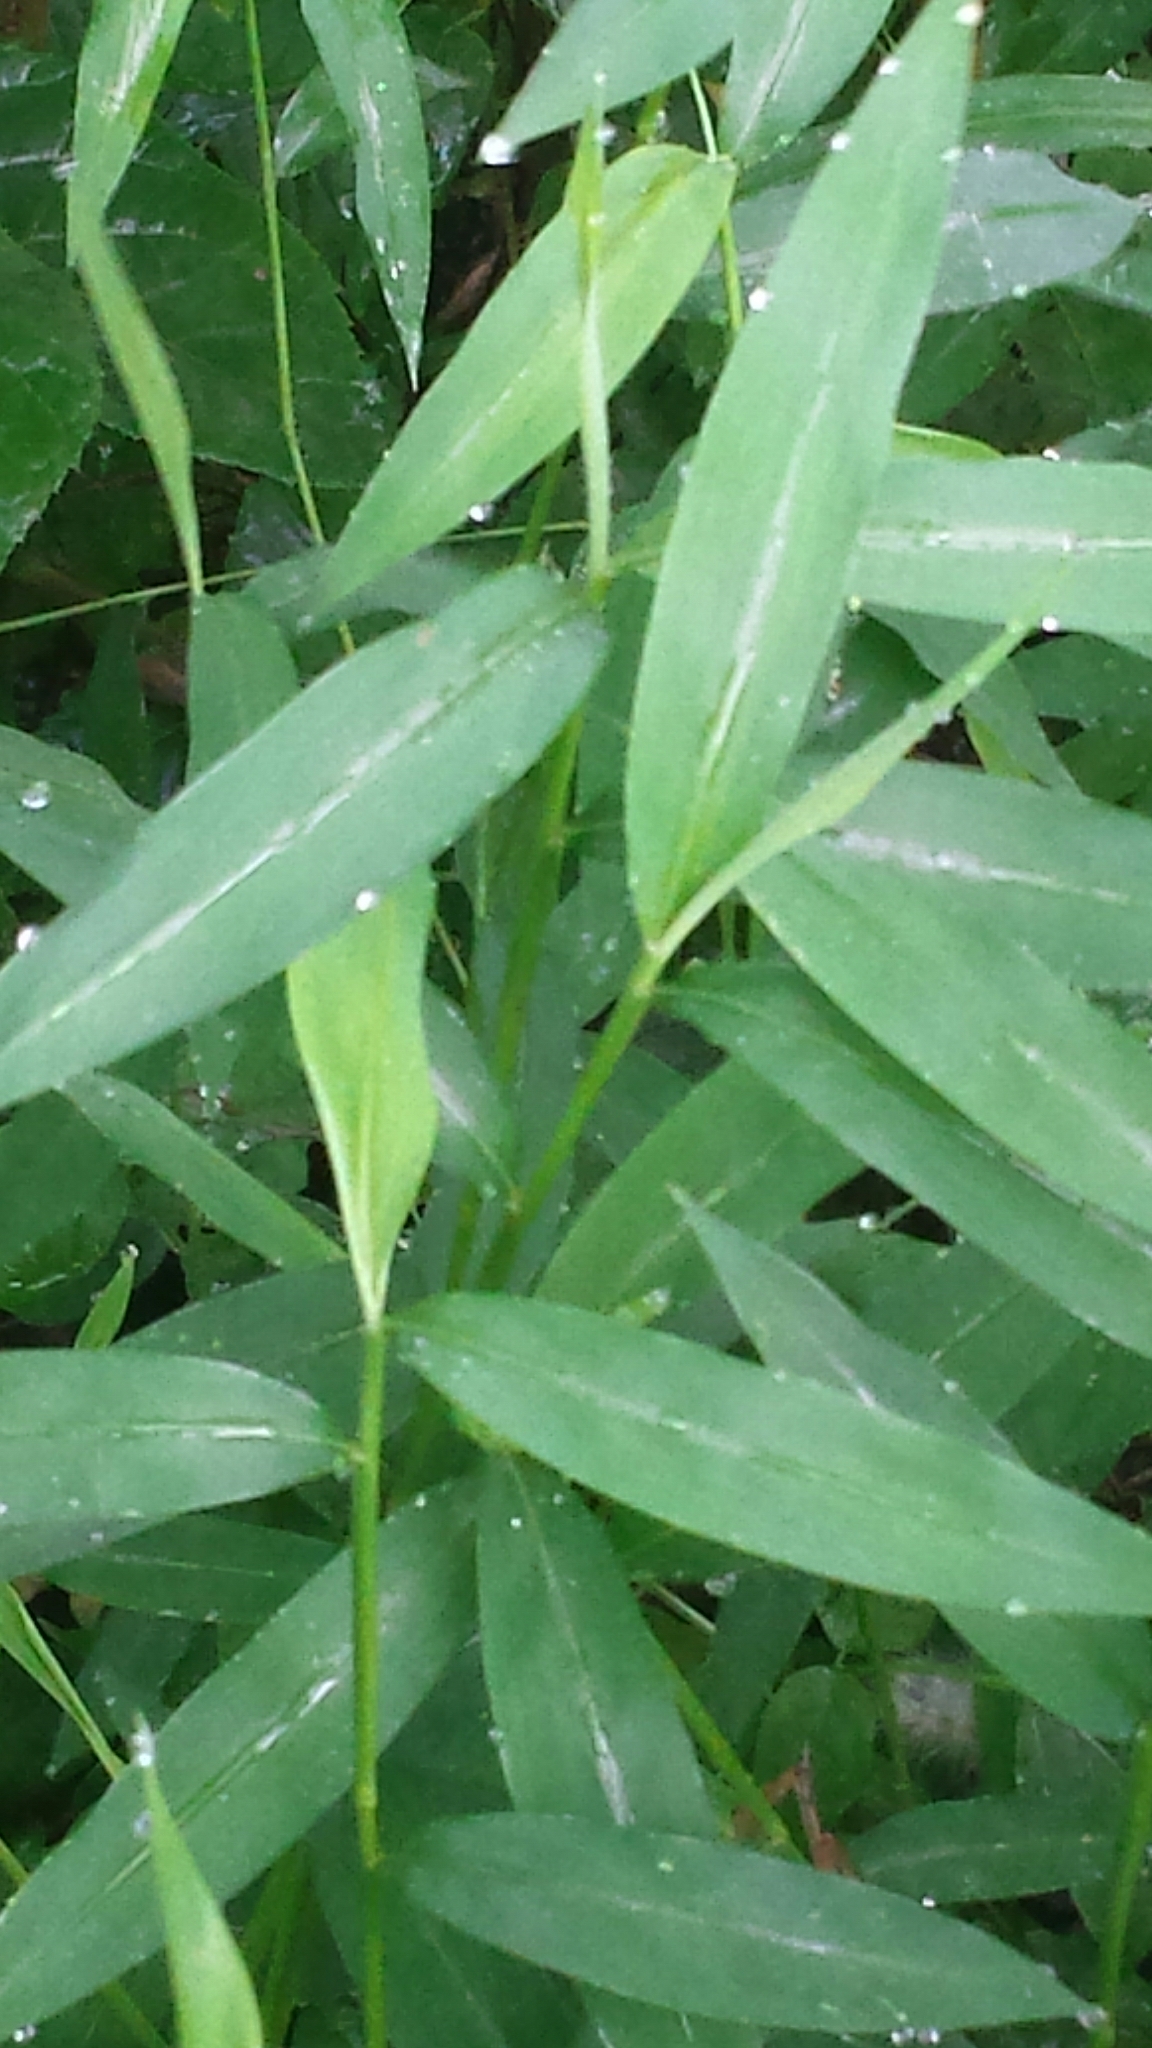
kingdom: Plantae
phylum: Tracheophyta
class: Liliopsida
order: Poales
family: Poaceae
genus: Microstegium
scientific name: Microstegium vimineum
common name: Japanese stiltgrass
